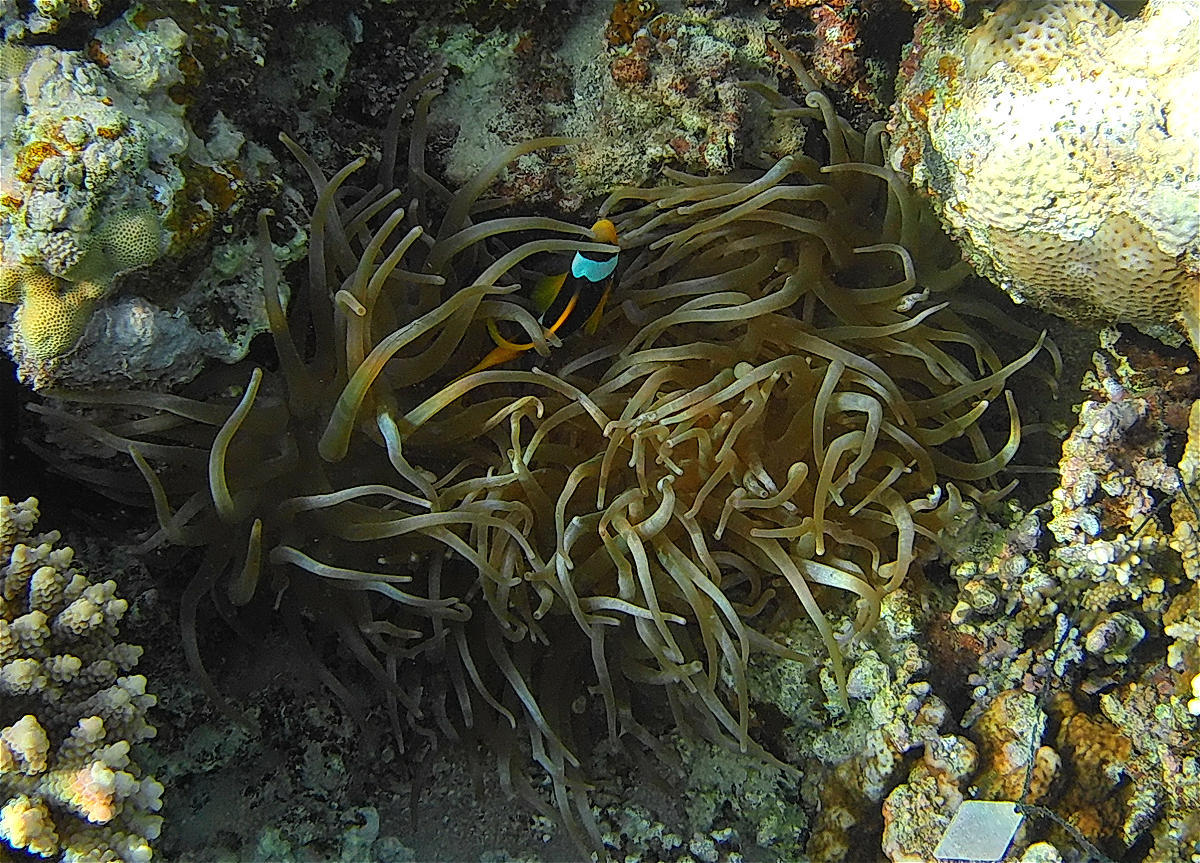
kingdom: Animalia
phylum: Cnidaria
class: Anthozoa
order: Actiniaria
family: Actiniidae
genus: Entacmaea
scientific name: Entacmaea quadricolor
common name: Bulb tentacle sea anemone
